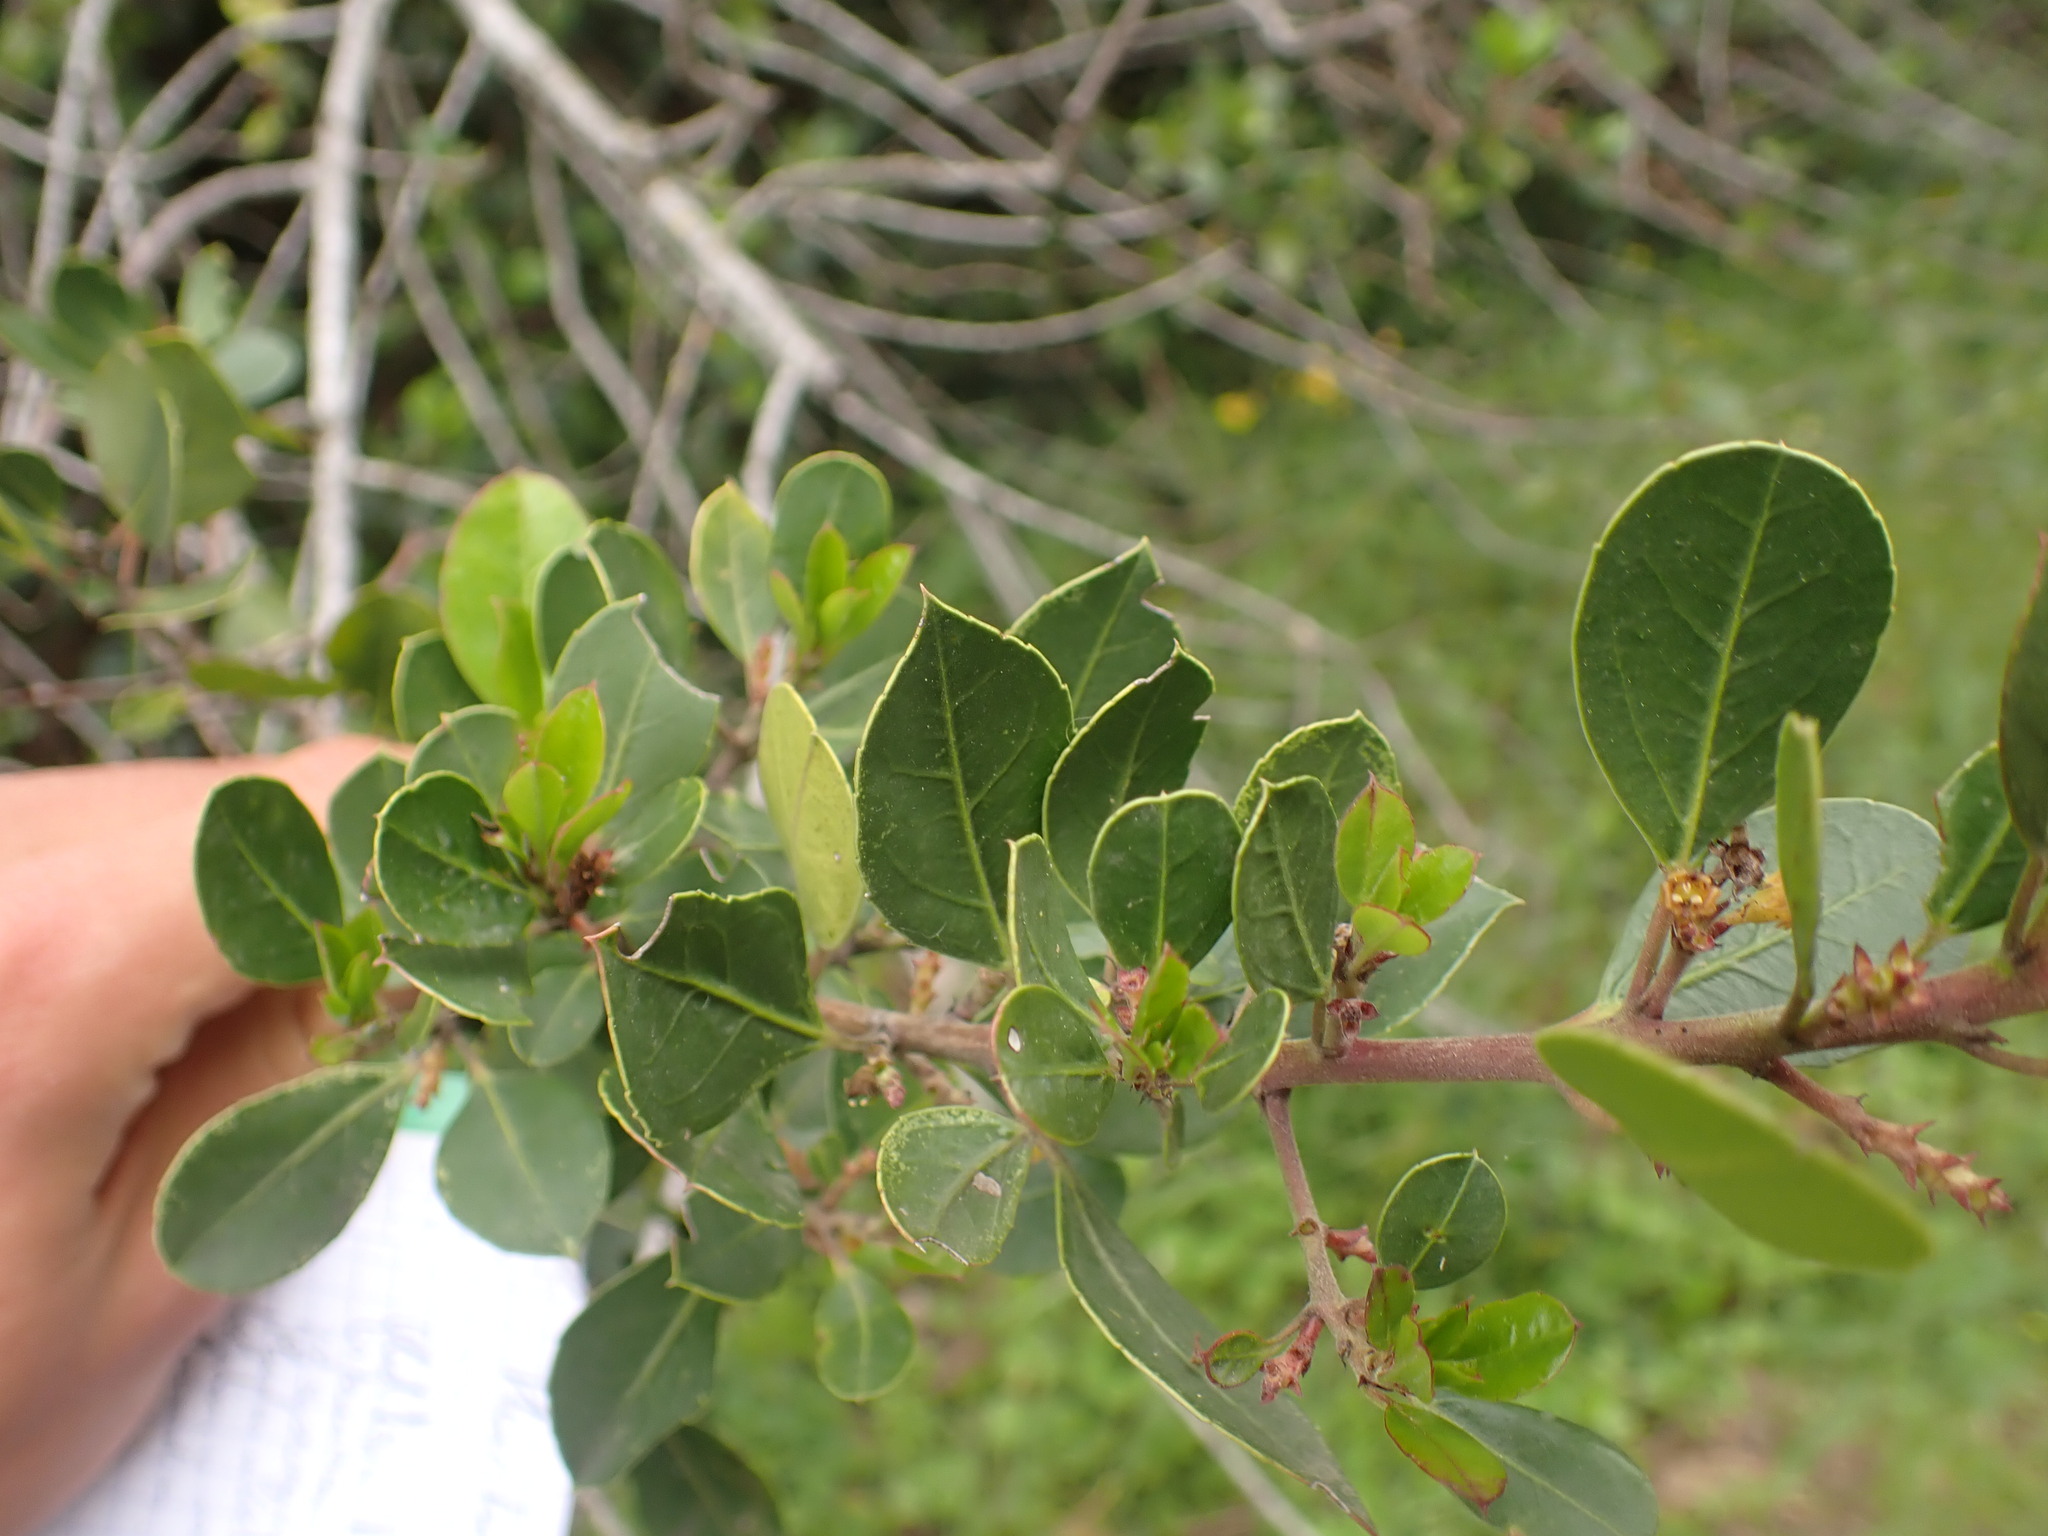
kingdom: Plantae
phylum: Tracheophyta
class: Magnoliopsida
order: Rosales
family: Rhamnaceae
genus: Rhamnus
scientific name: Rhamnus alaternus
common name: Mediterranean buckthorn
